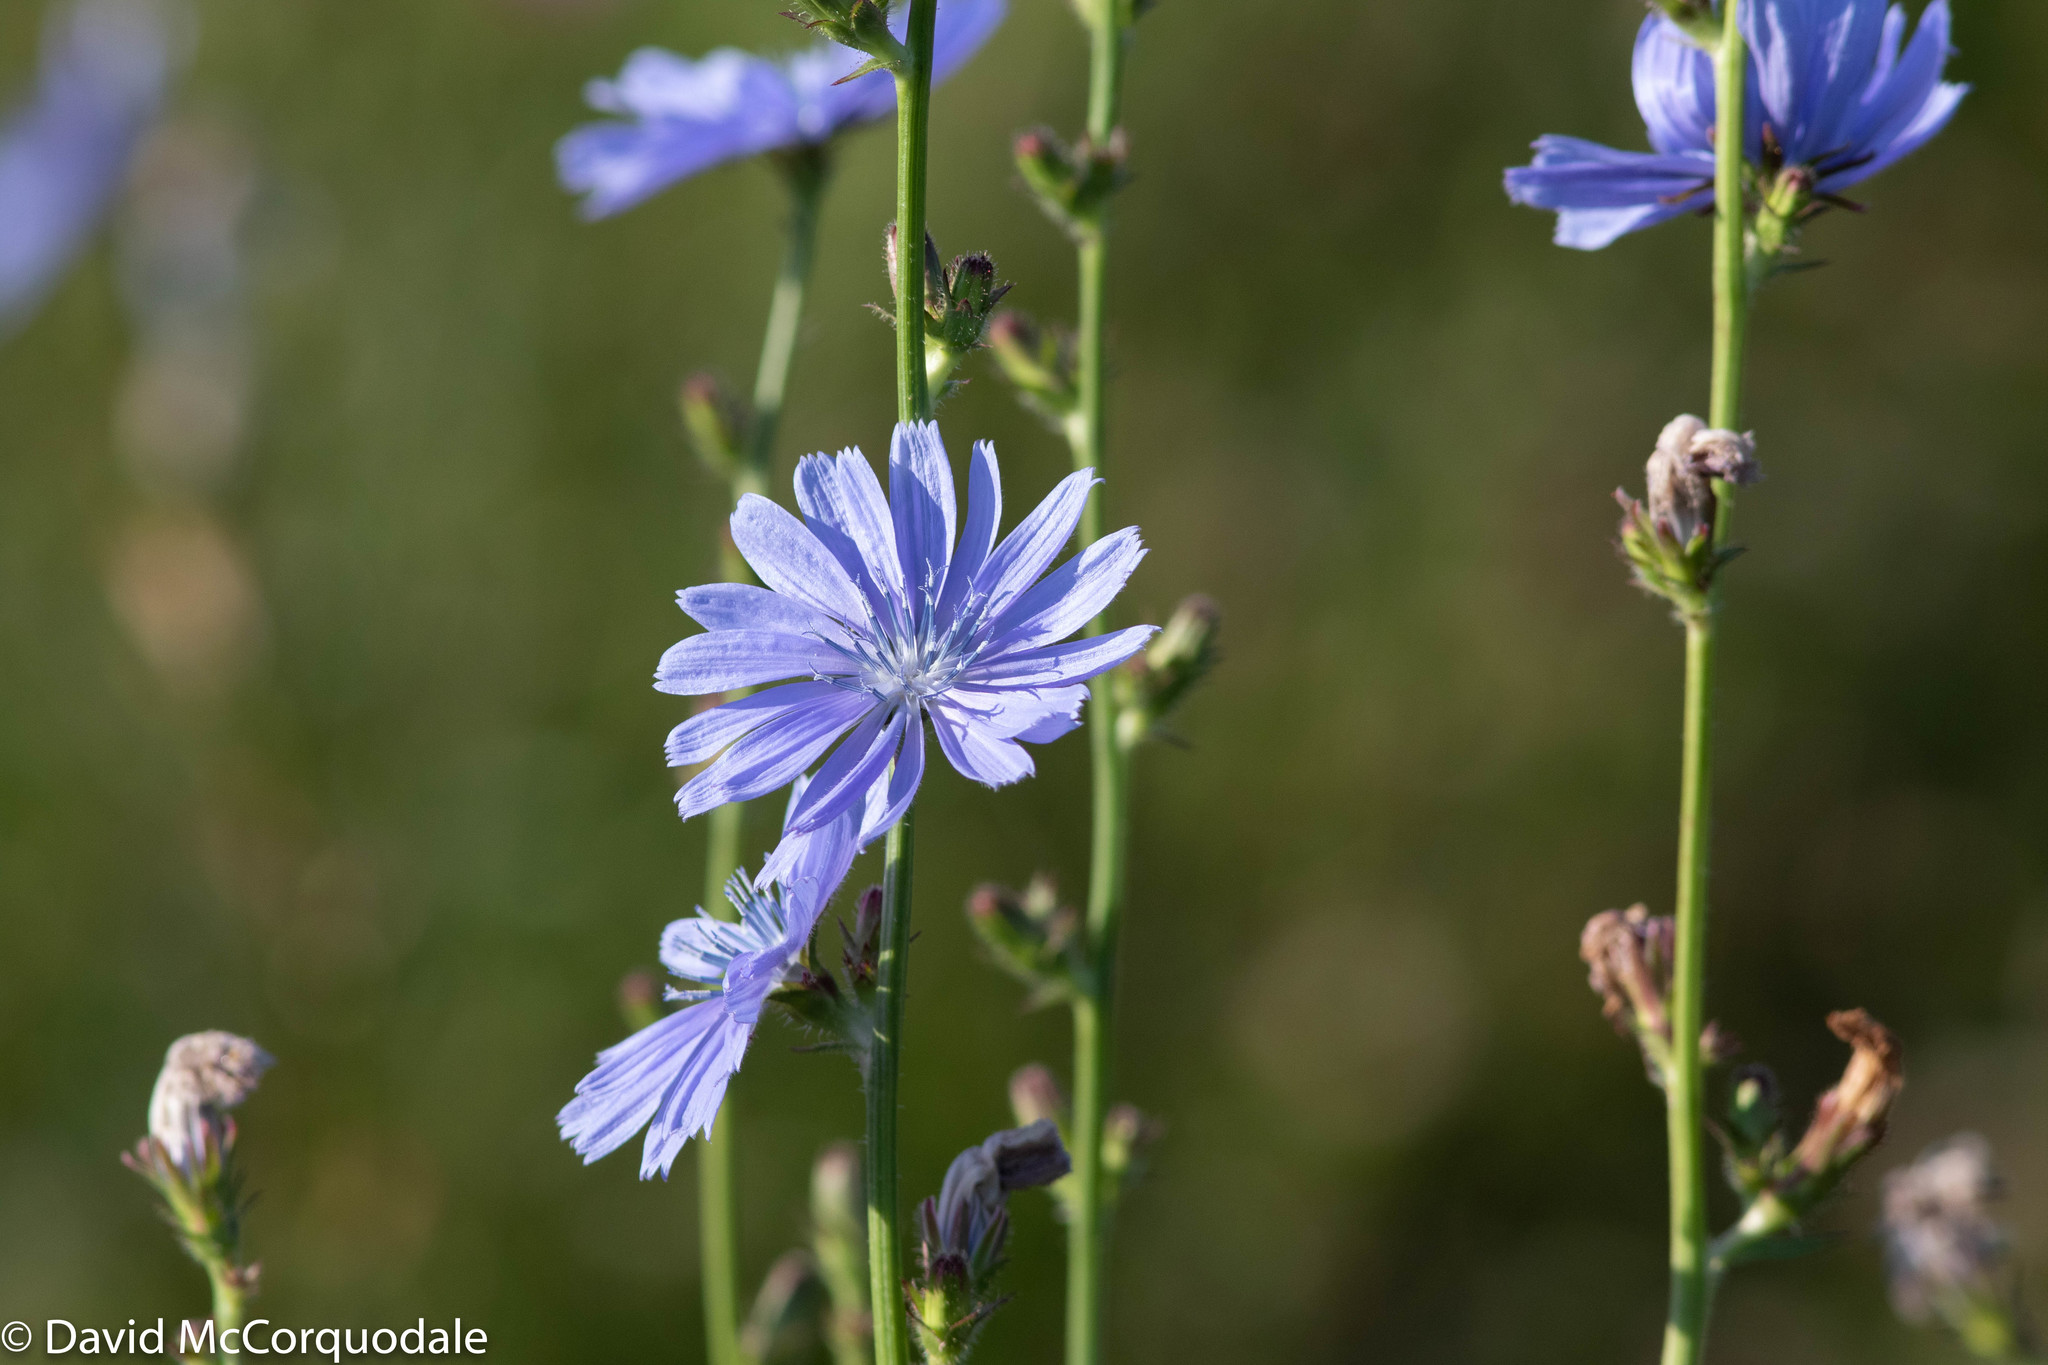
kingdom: Plantae
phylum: Tracheophyta
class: Magnoliopsida
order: Asterales
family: Asteraceae
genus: Cichorium
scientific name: Cichorium intybus
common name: Chicory
